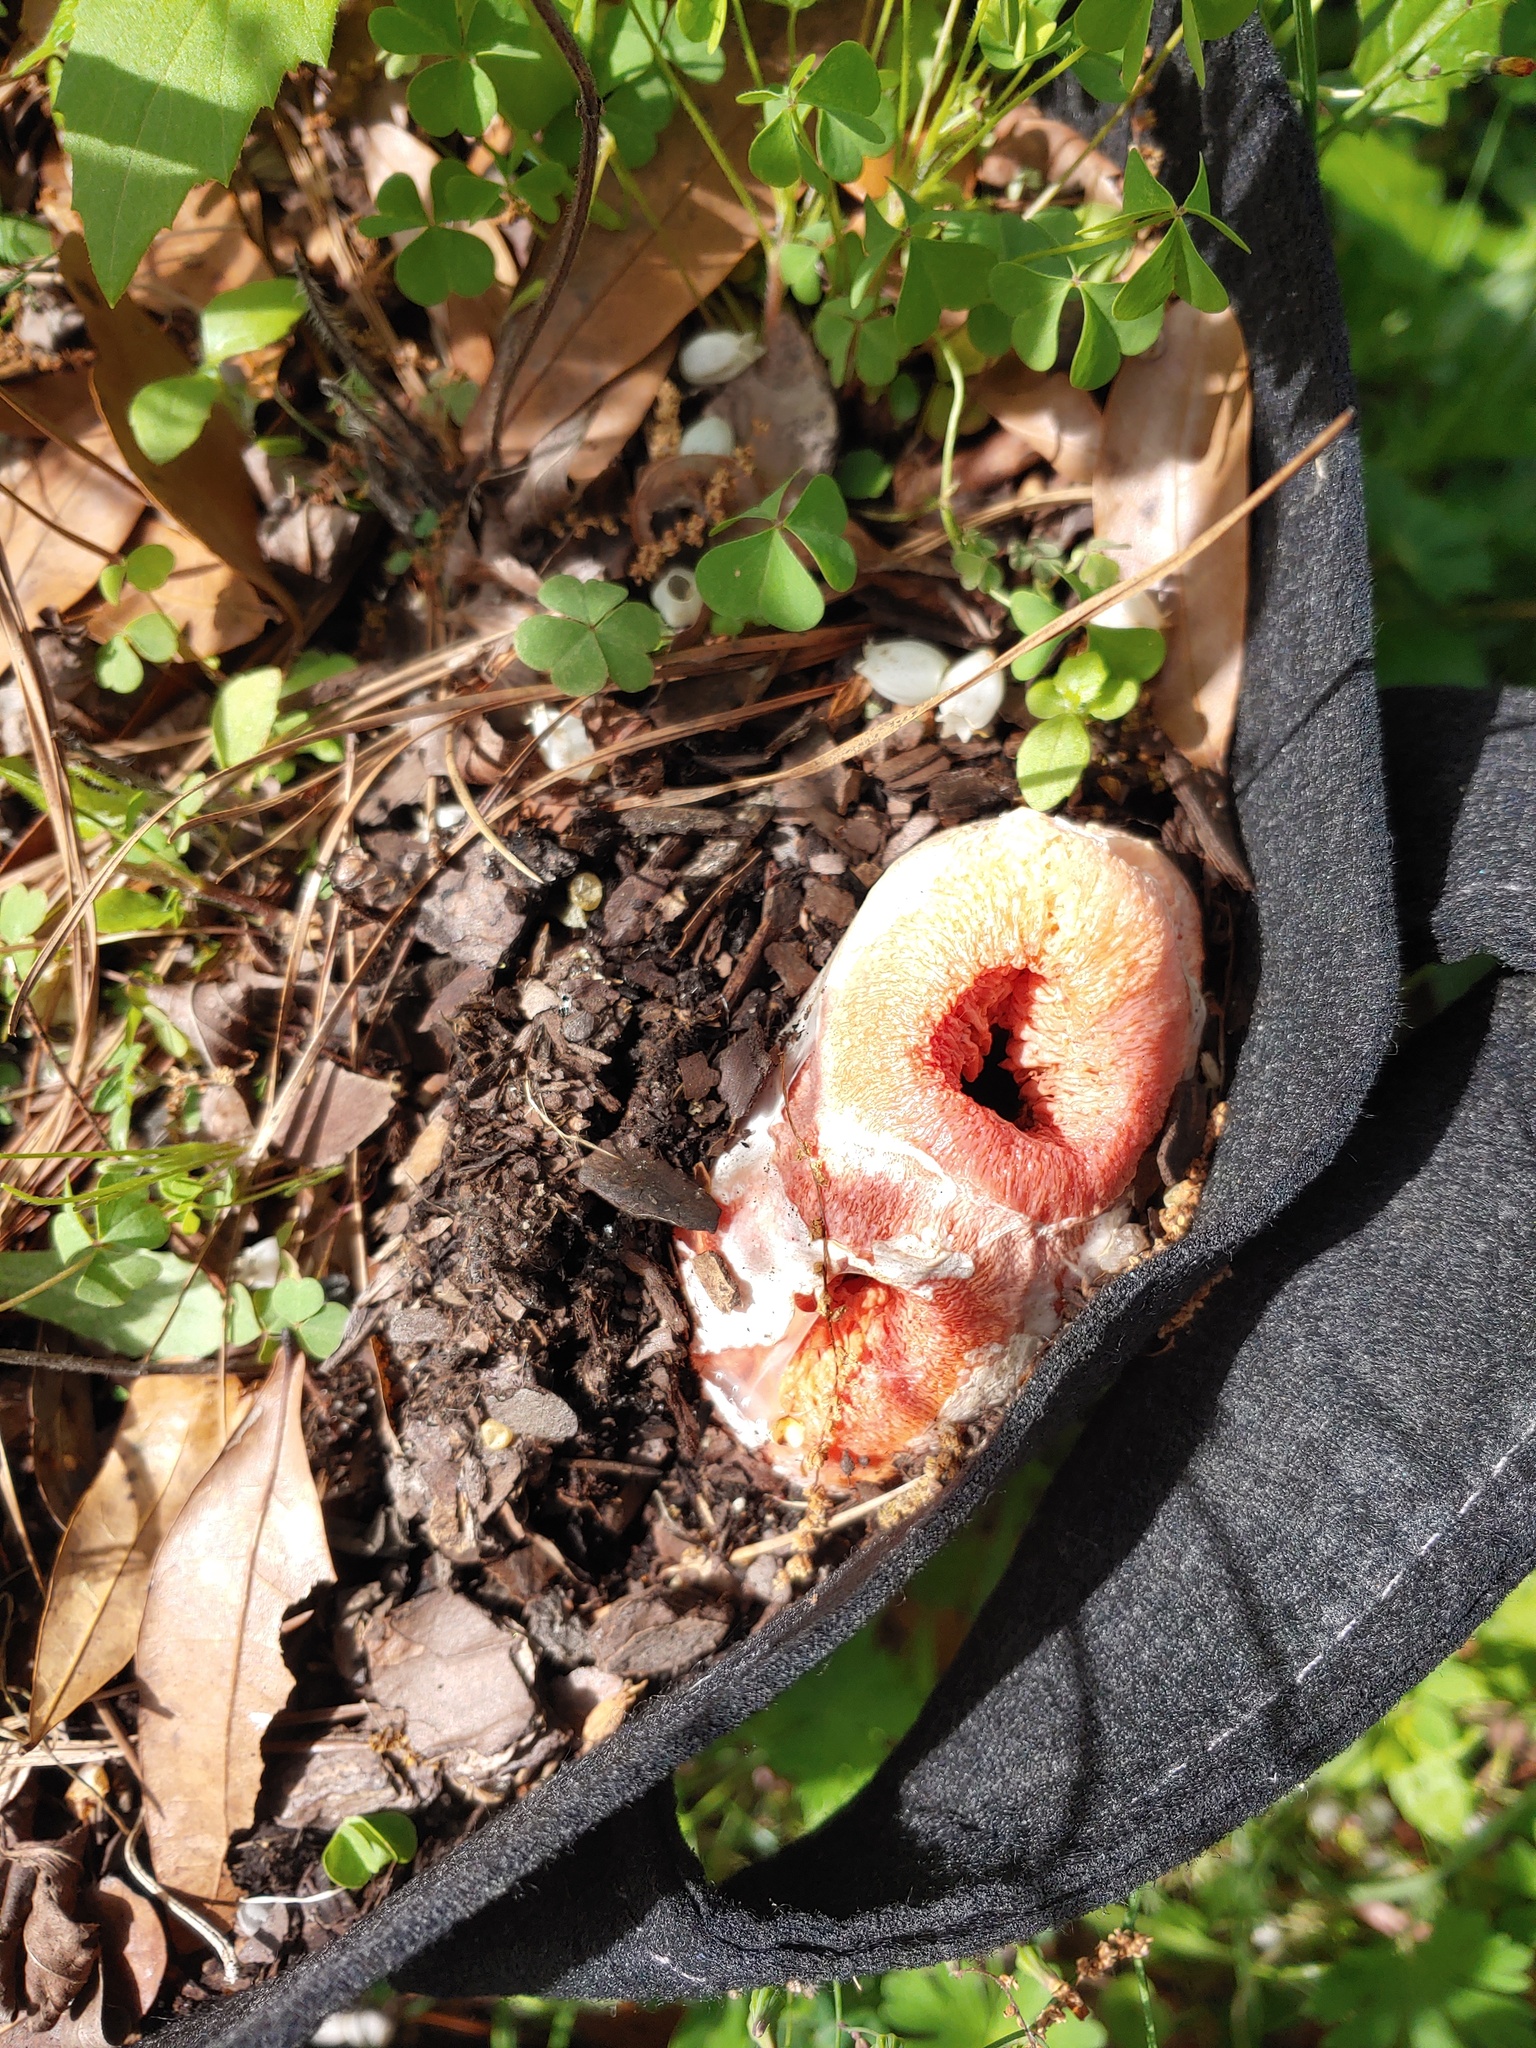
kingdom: Fungi
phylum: Basidiomycota
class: Agaricomycetes
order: Phallales
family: Phallaceae
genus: Clathrus
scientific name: Clathrus columnatus
